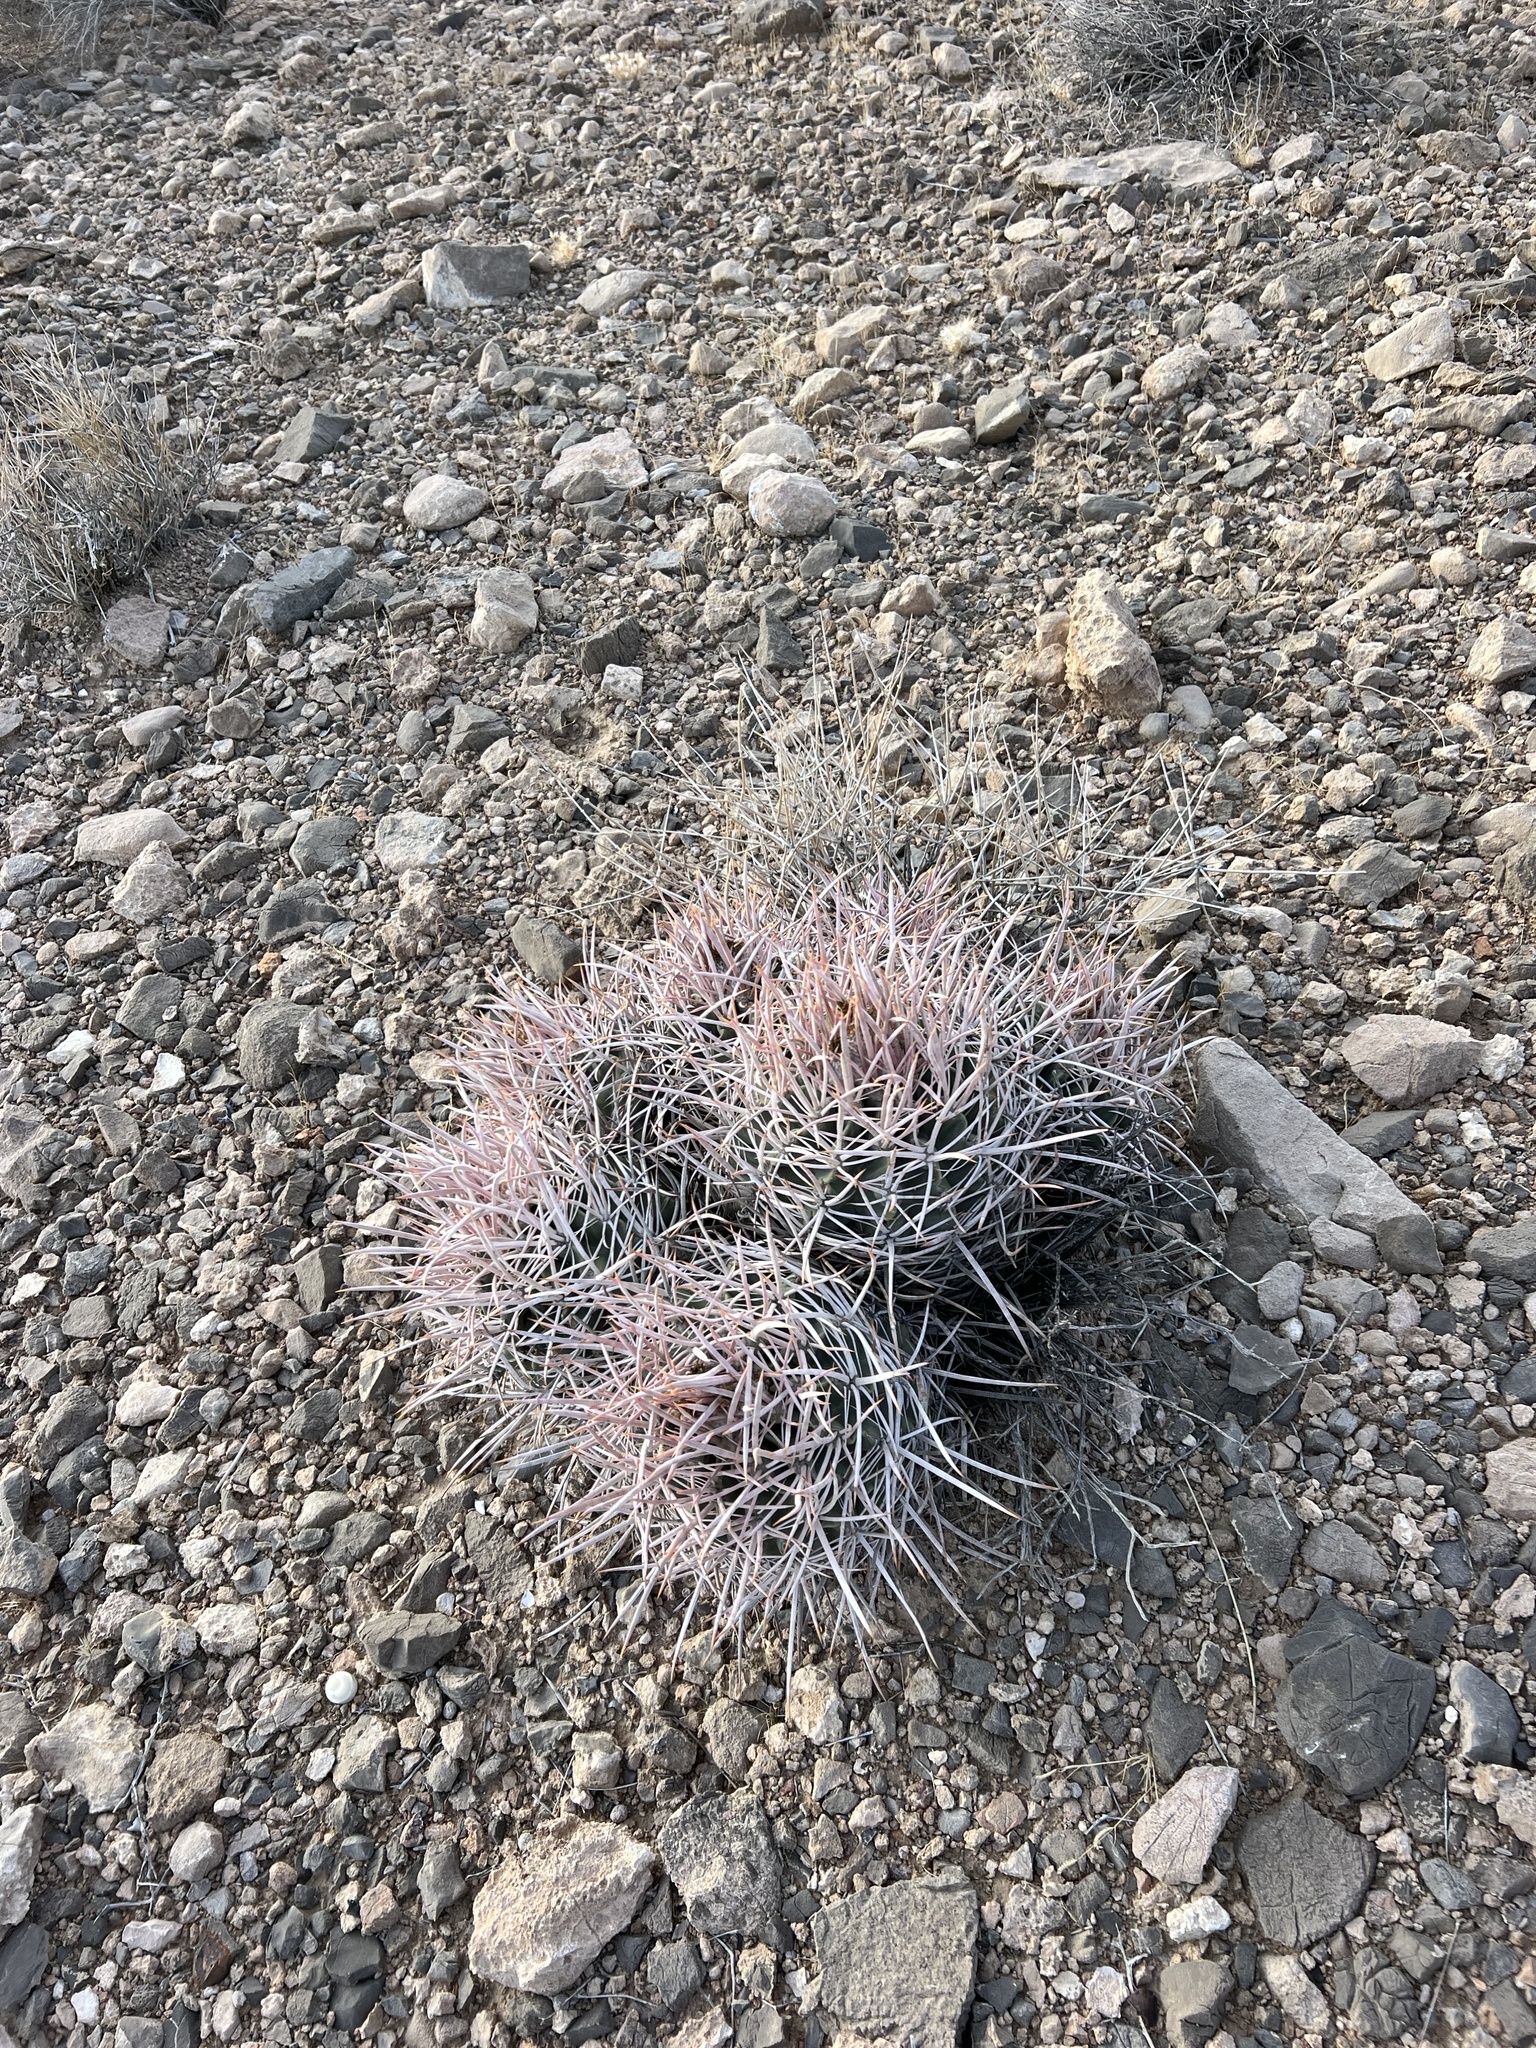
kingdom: Plantae
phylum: Tracheophyta
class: Magnoliopsida
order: Caryophyllales
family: Cactaceae
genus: Echinocactus
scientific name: Echinocactus polycephalus
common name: Cottontop cactus
